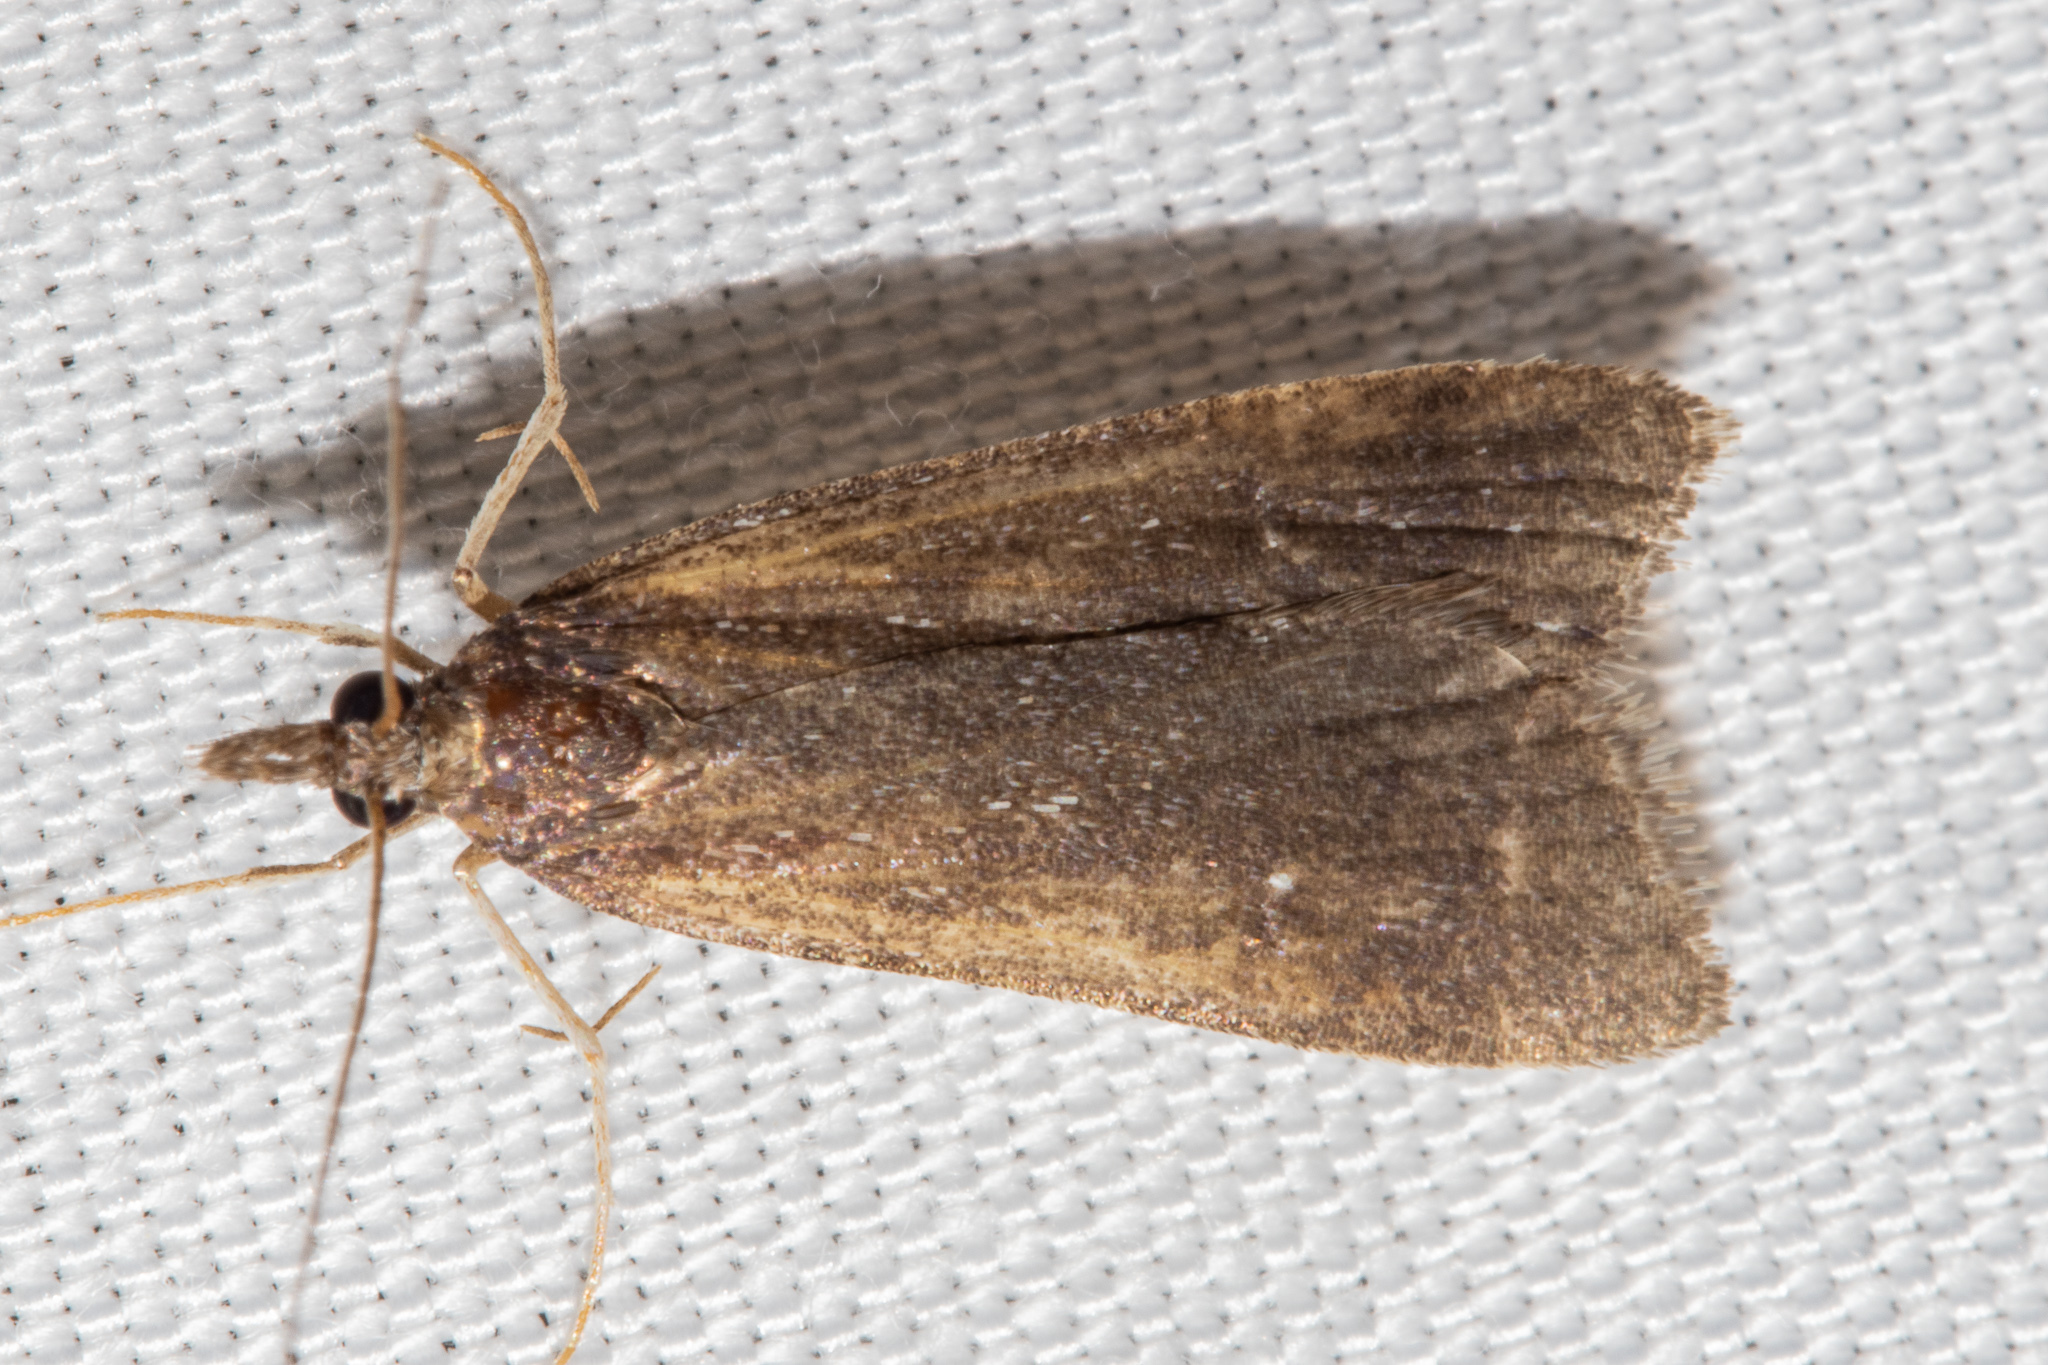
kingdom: Animalia
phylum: Arthropoda
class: Insecta
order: Lepidoptera
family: Crambidae
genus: Eudonia
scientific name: Eudonia oculata
